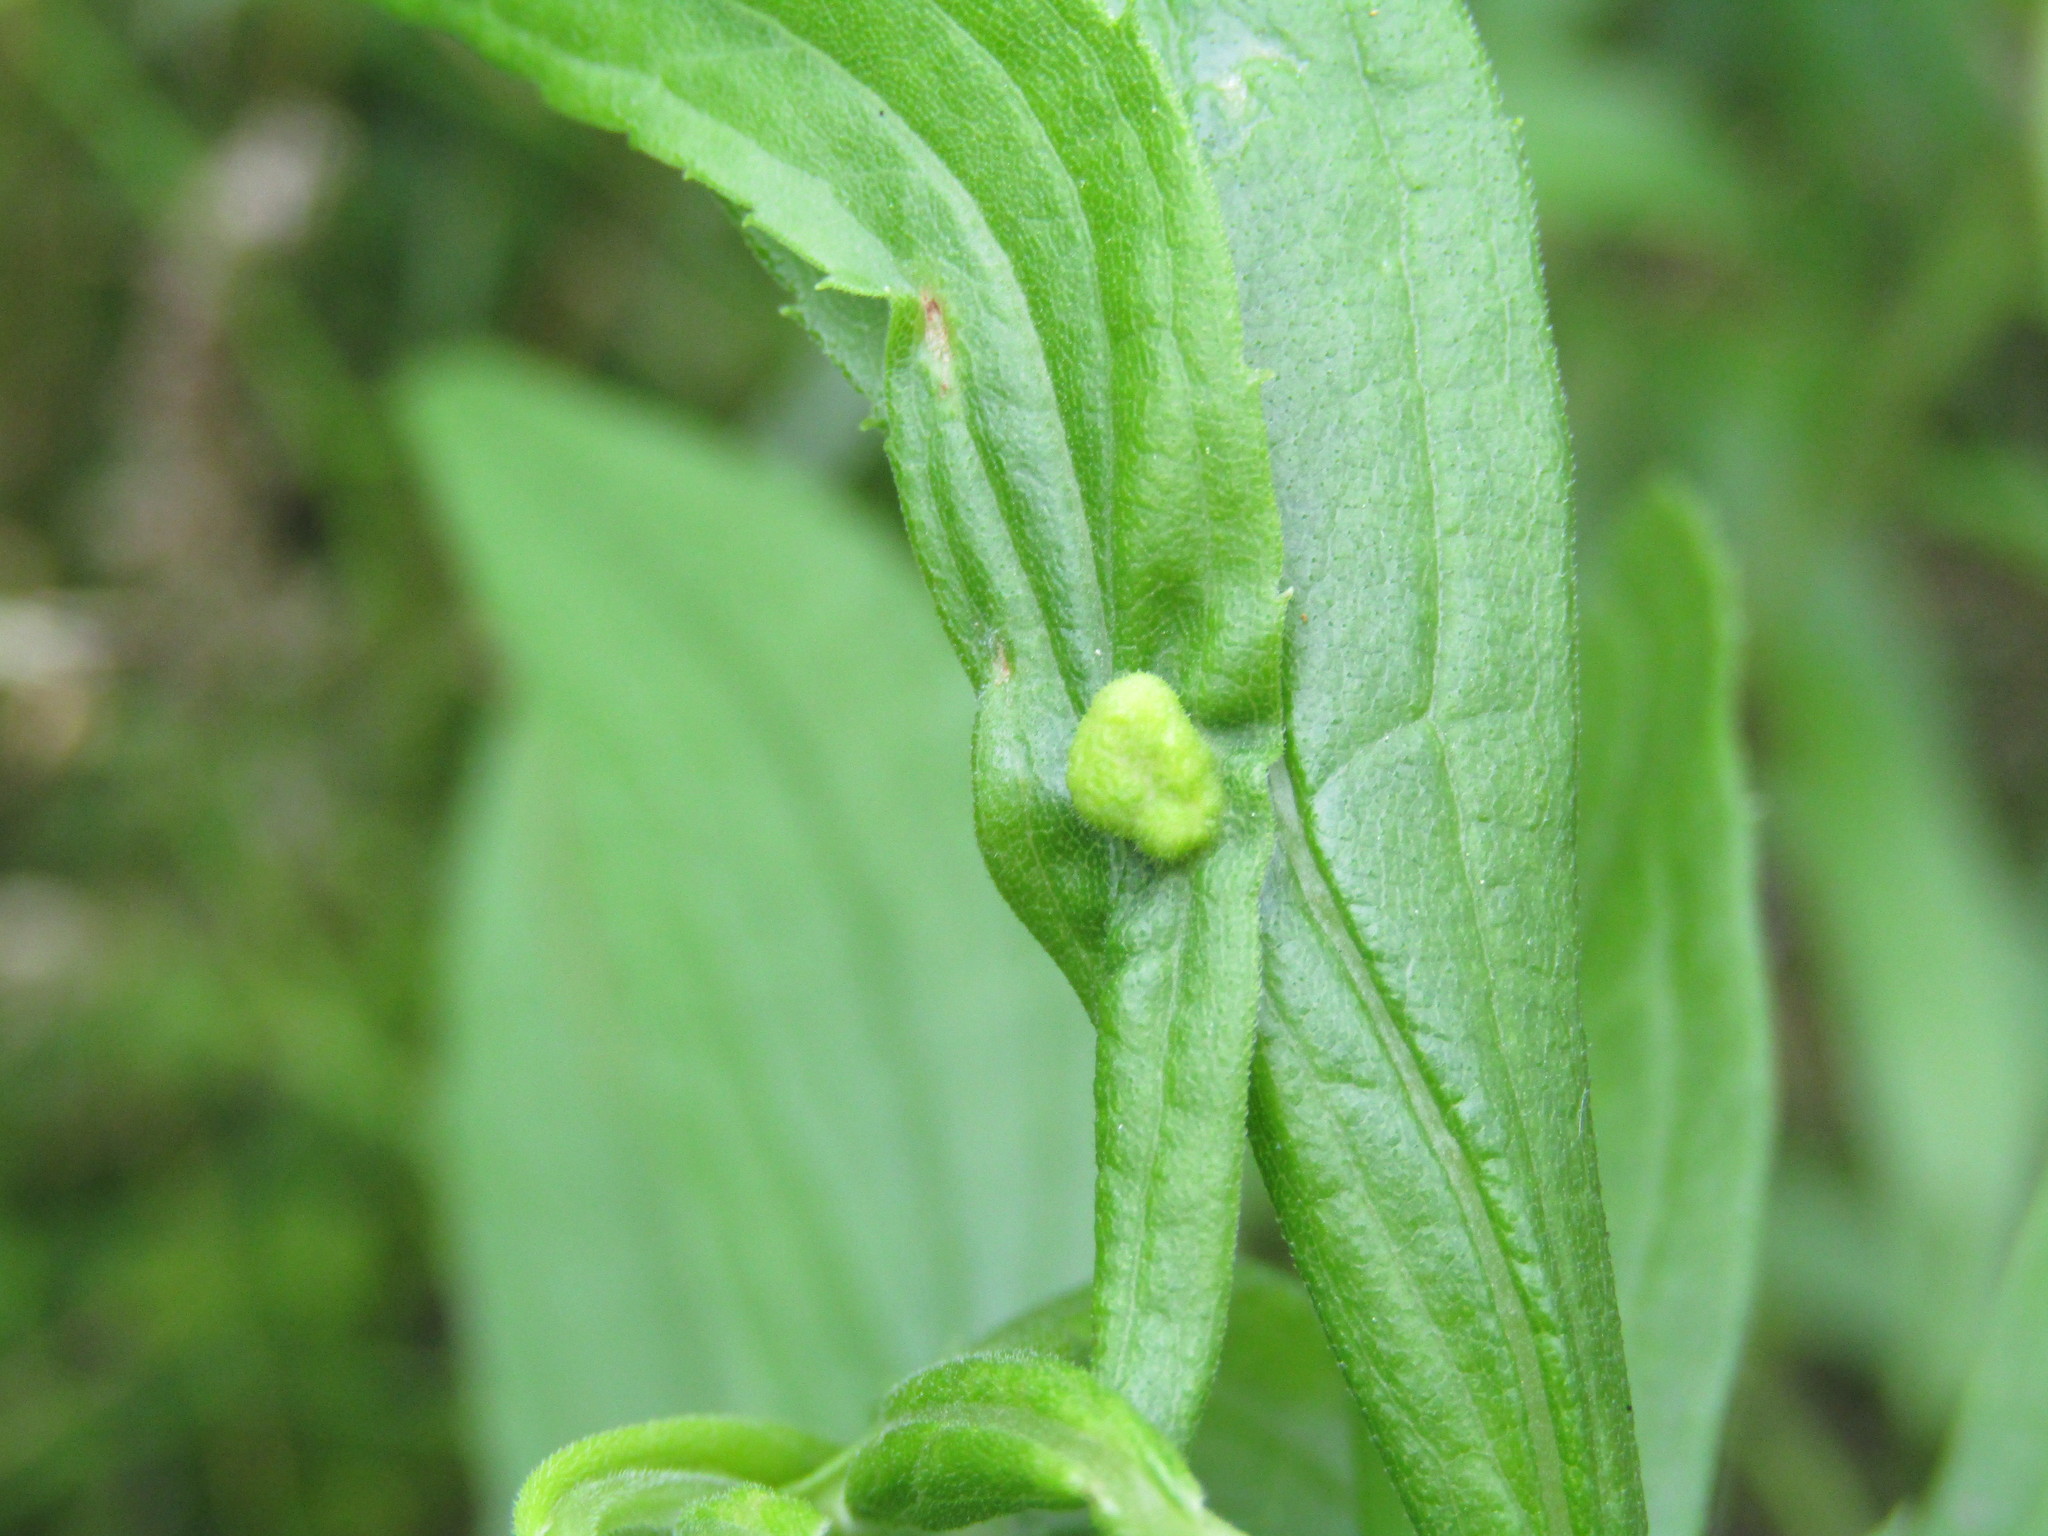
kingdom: Animalia
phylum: Arthropoda
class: Insecta
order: Diptera
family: Cecidomyiidae
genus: Asphondylia
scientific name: Asphondylia solidaginis
